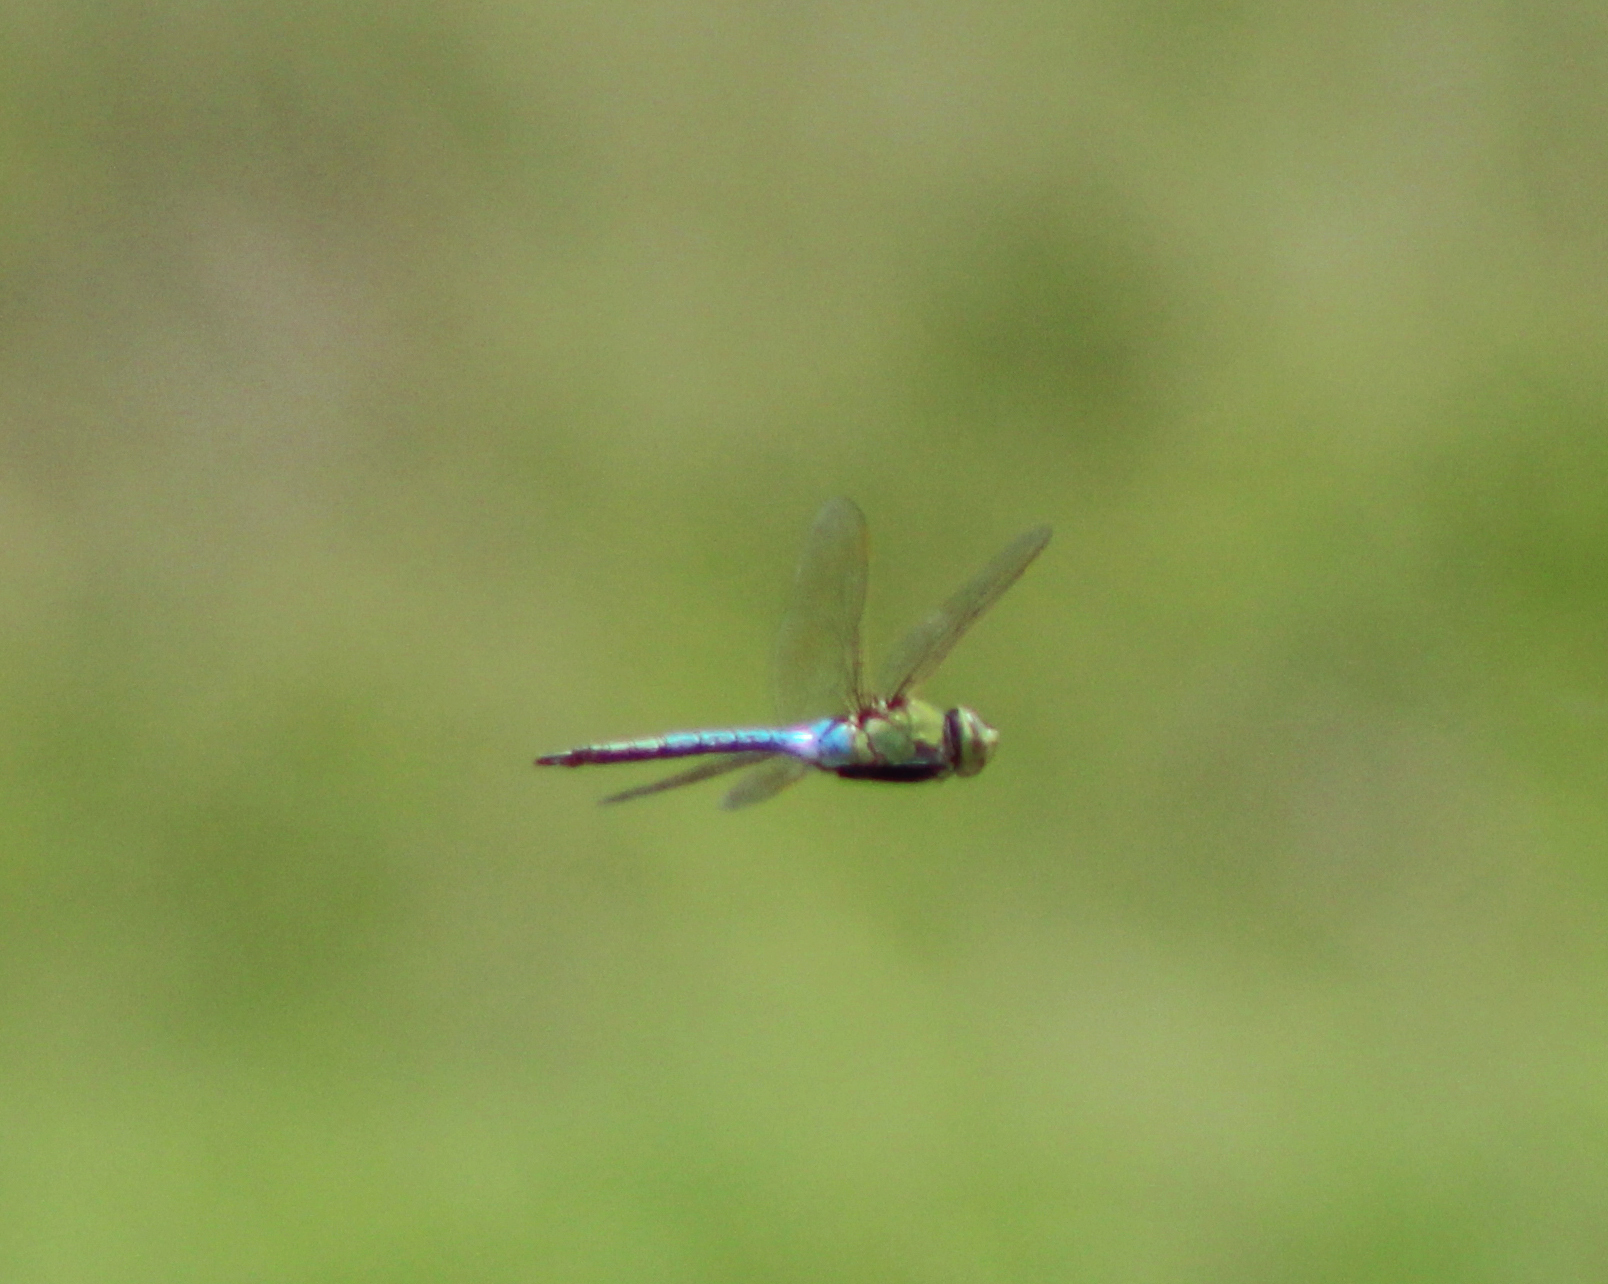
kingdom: Animalia
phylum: Arthropoda
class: Insecta
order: Odonata
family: Aeshnidae
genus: Anax
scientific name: Anax junius
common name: Common green darner
